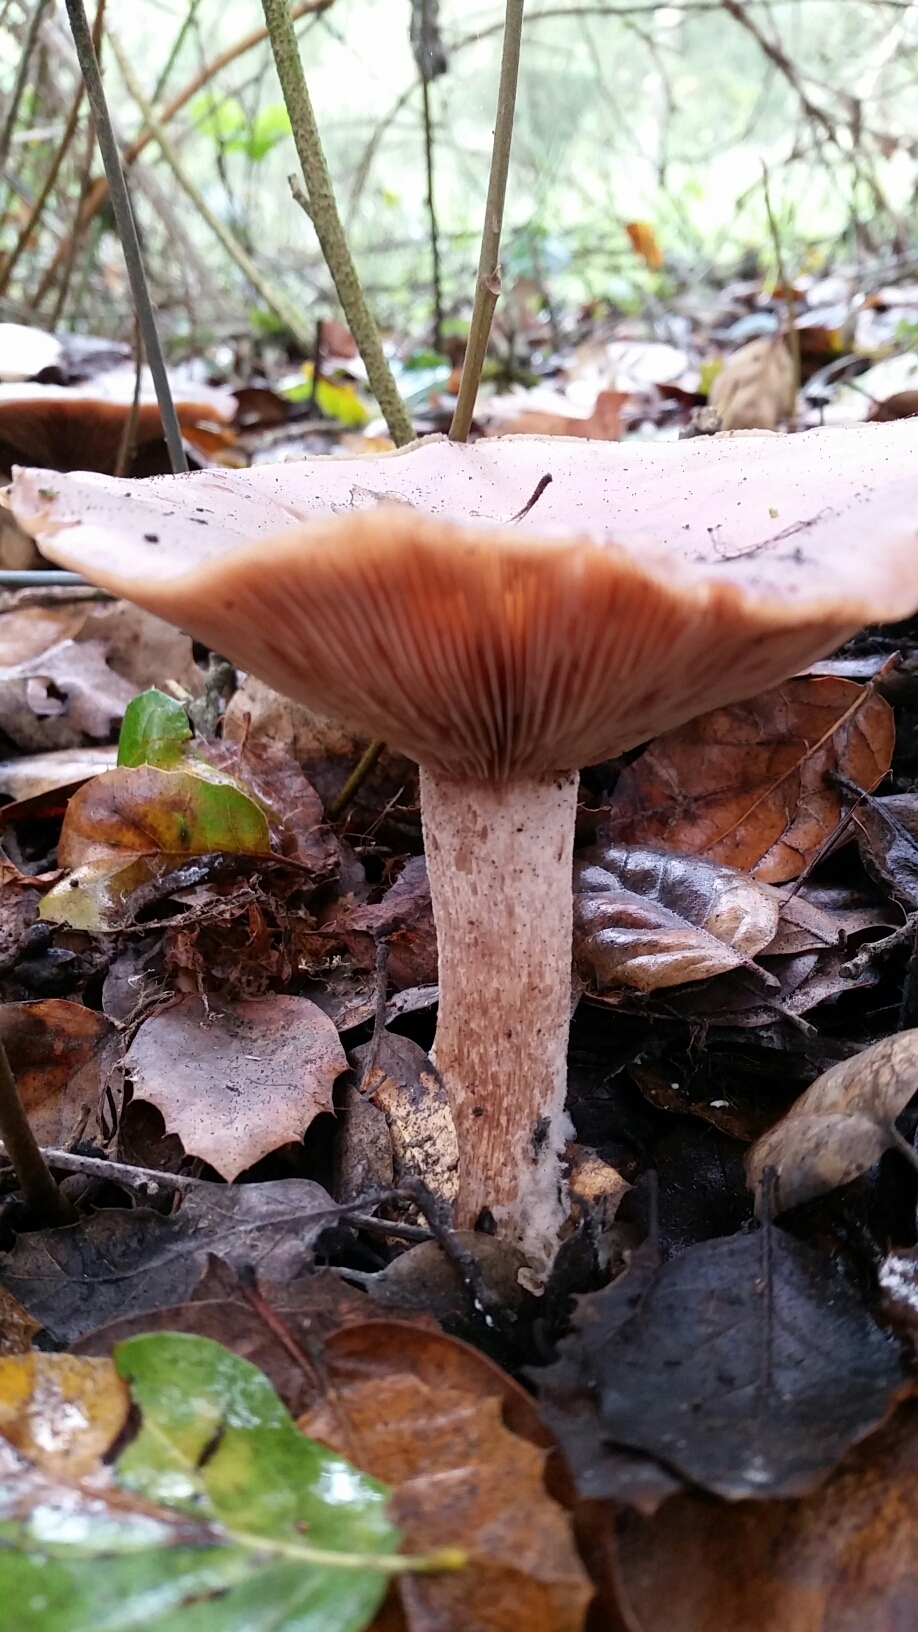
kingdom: Fungi
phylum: Basidiomycota
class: Agaricomycetes
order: Agaricales
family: Tricholomataceae
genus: Collybia
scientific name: Collybia
